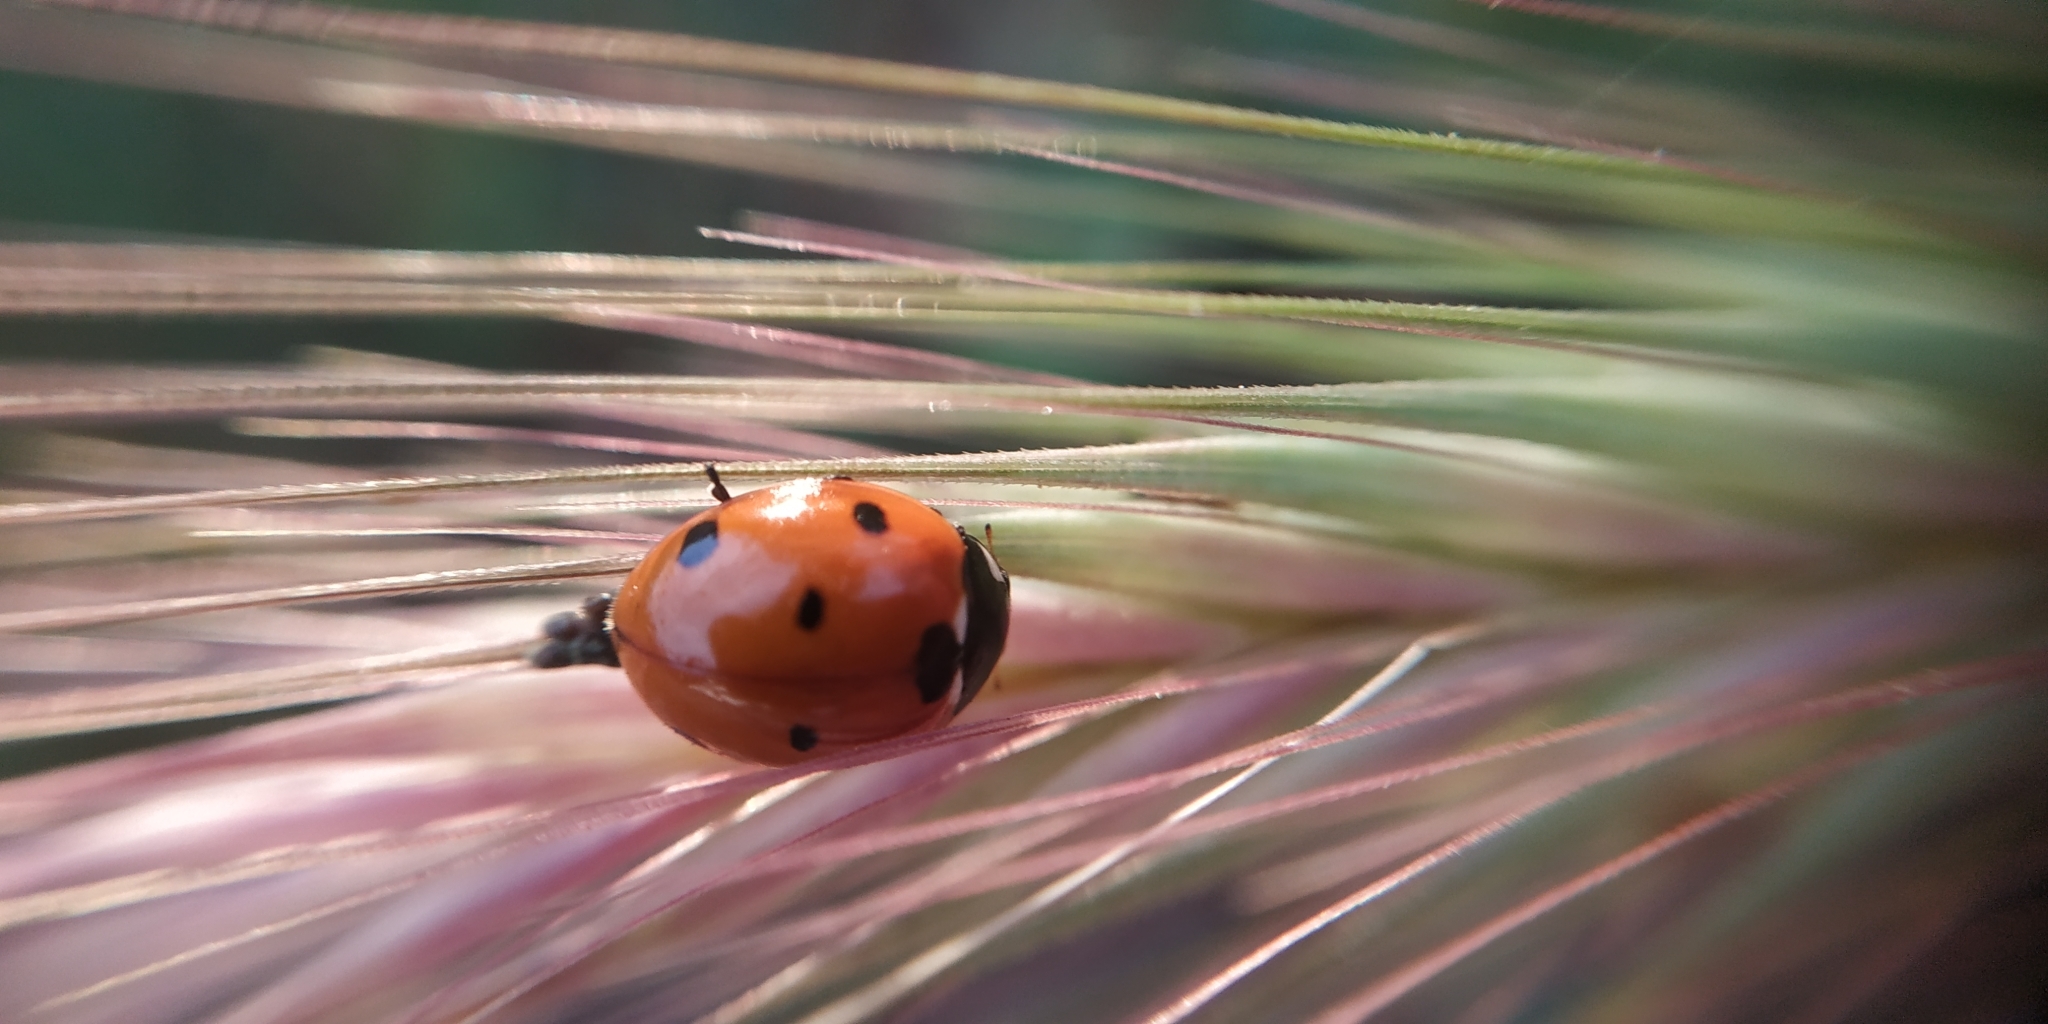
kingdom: Animalia
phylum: Arthropoda
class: Insecta
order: Coleoptera
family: Coccinellidae
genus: Coccinella
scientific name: Coccinella septempunctata
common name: Sevenspotted lady beetle
